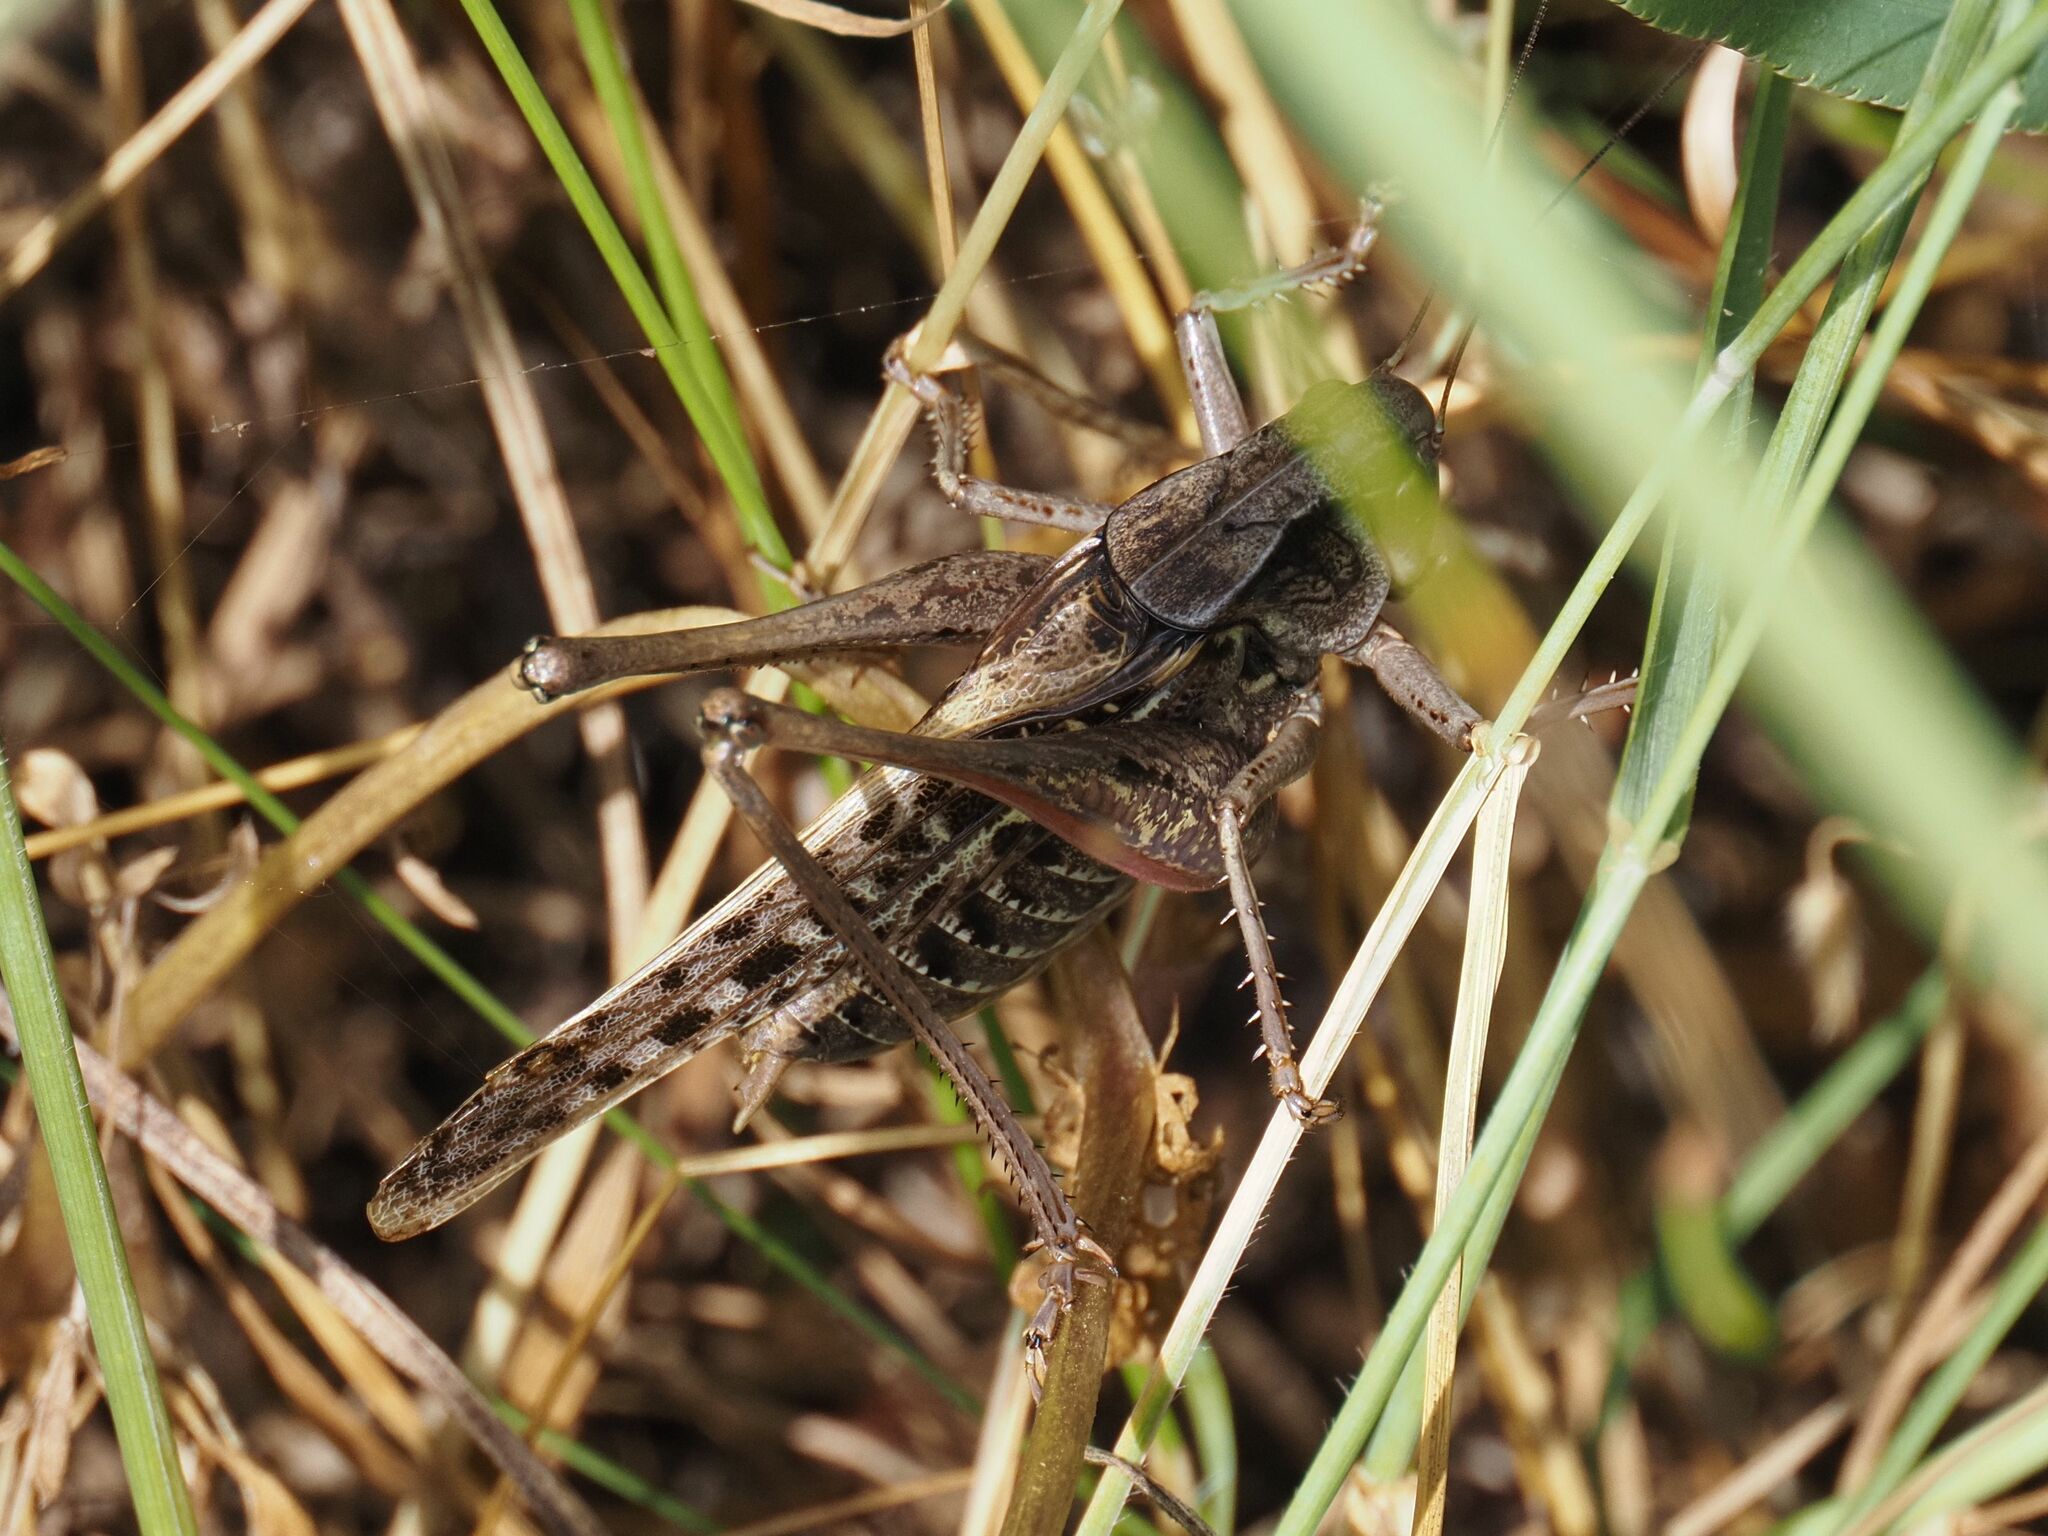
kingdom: Animalia
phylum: Arthropoda
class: Insecta
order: Orthoptera
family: Tettigoniidae
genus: Decticus
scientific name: Decticus verrucivorus
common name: Wart-biter
